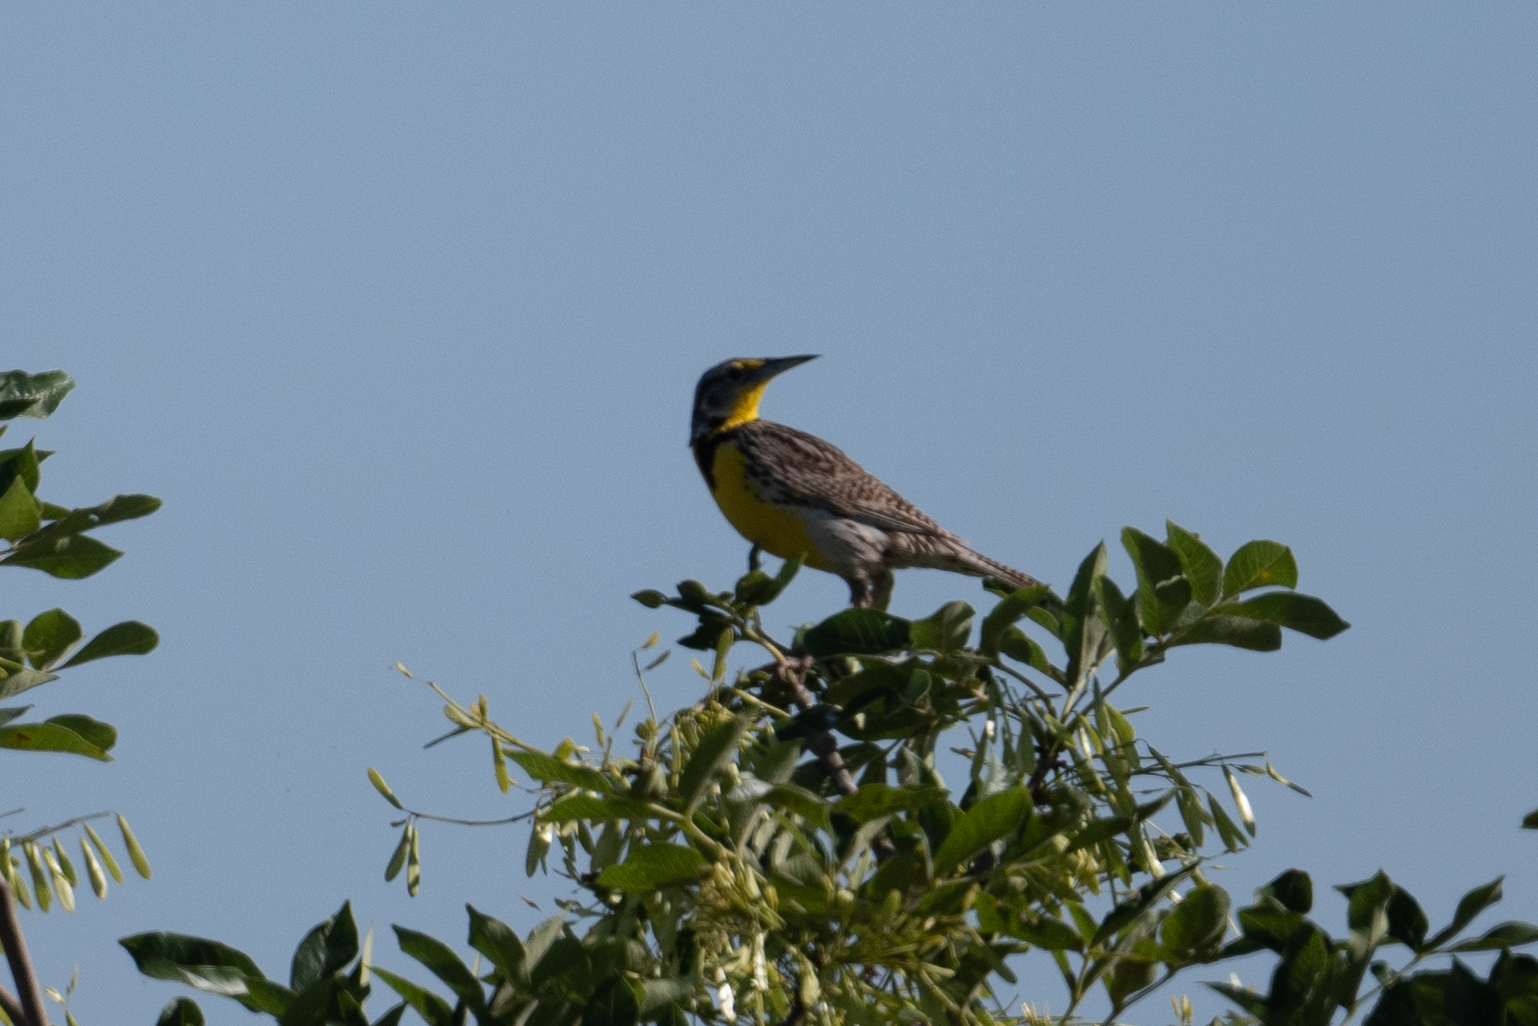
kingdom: Animalia
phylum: Chordata
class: Aves
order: Passeriformes
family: Icteridae
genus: Sturnella
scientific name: Sturnella neglecta
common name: Western meadowlark
